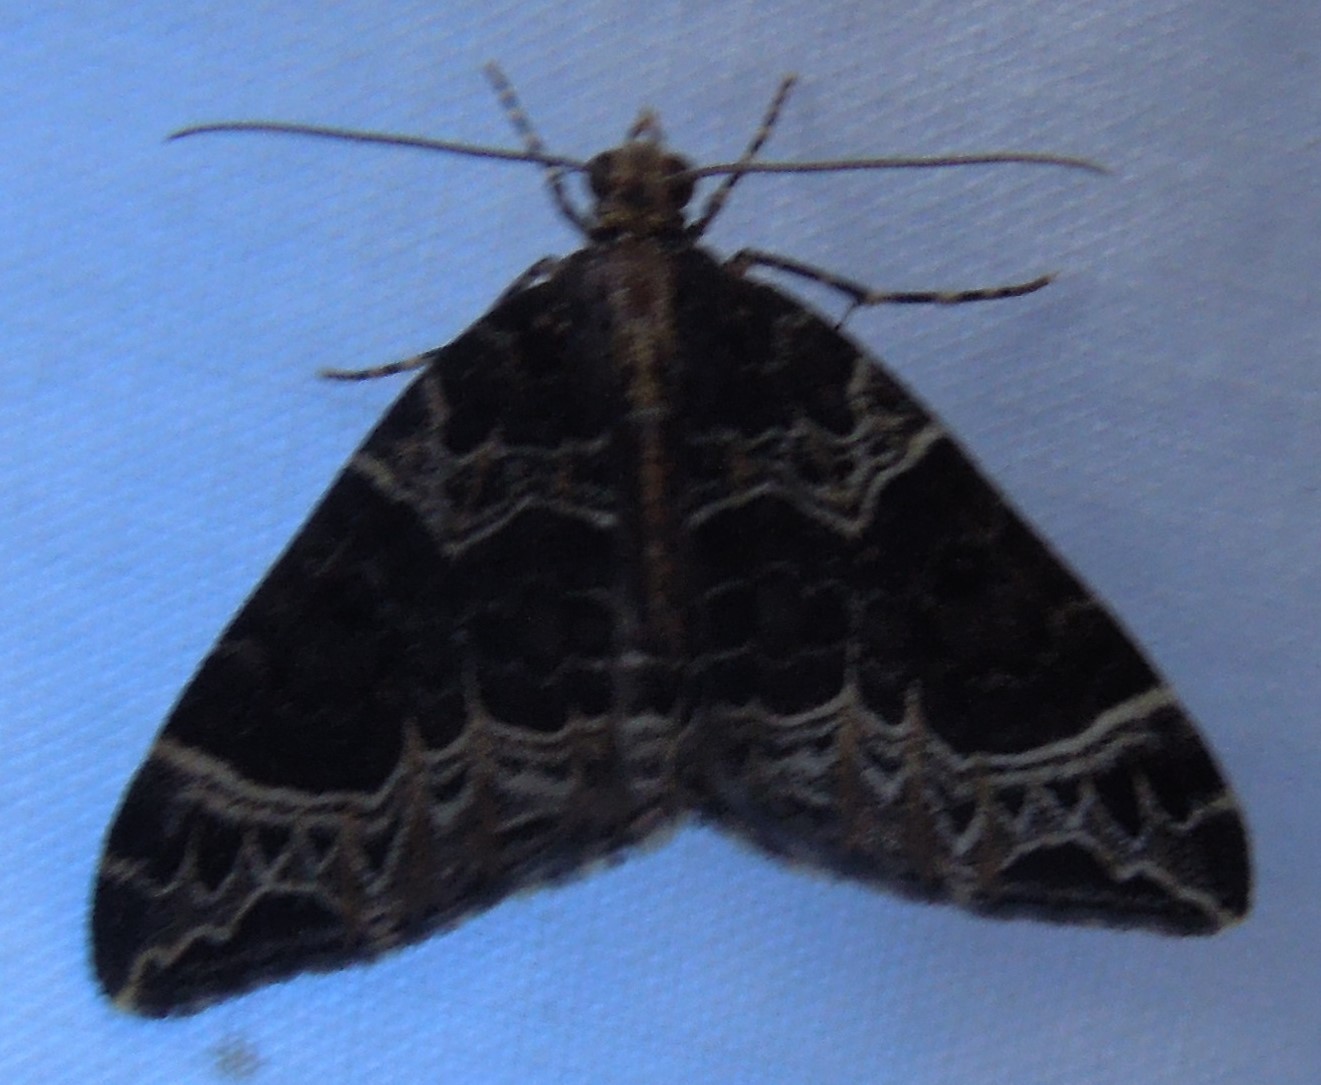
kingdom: Animalia
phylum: Arthropoda
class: Insecta
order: Lepidoptera
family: Geometridae
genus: Ecliptopera
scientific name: Ecliptopera silaceata
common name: Small phoenix
